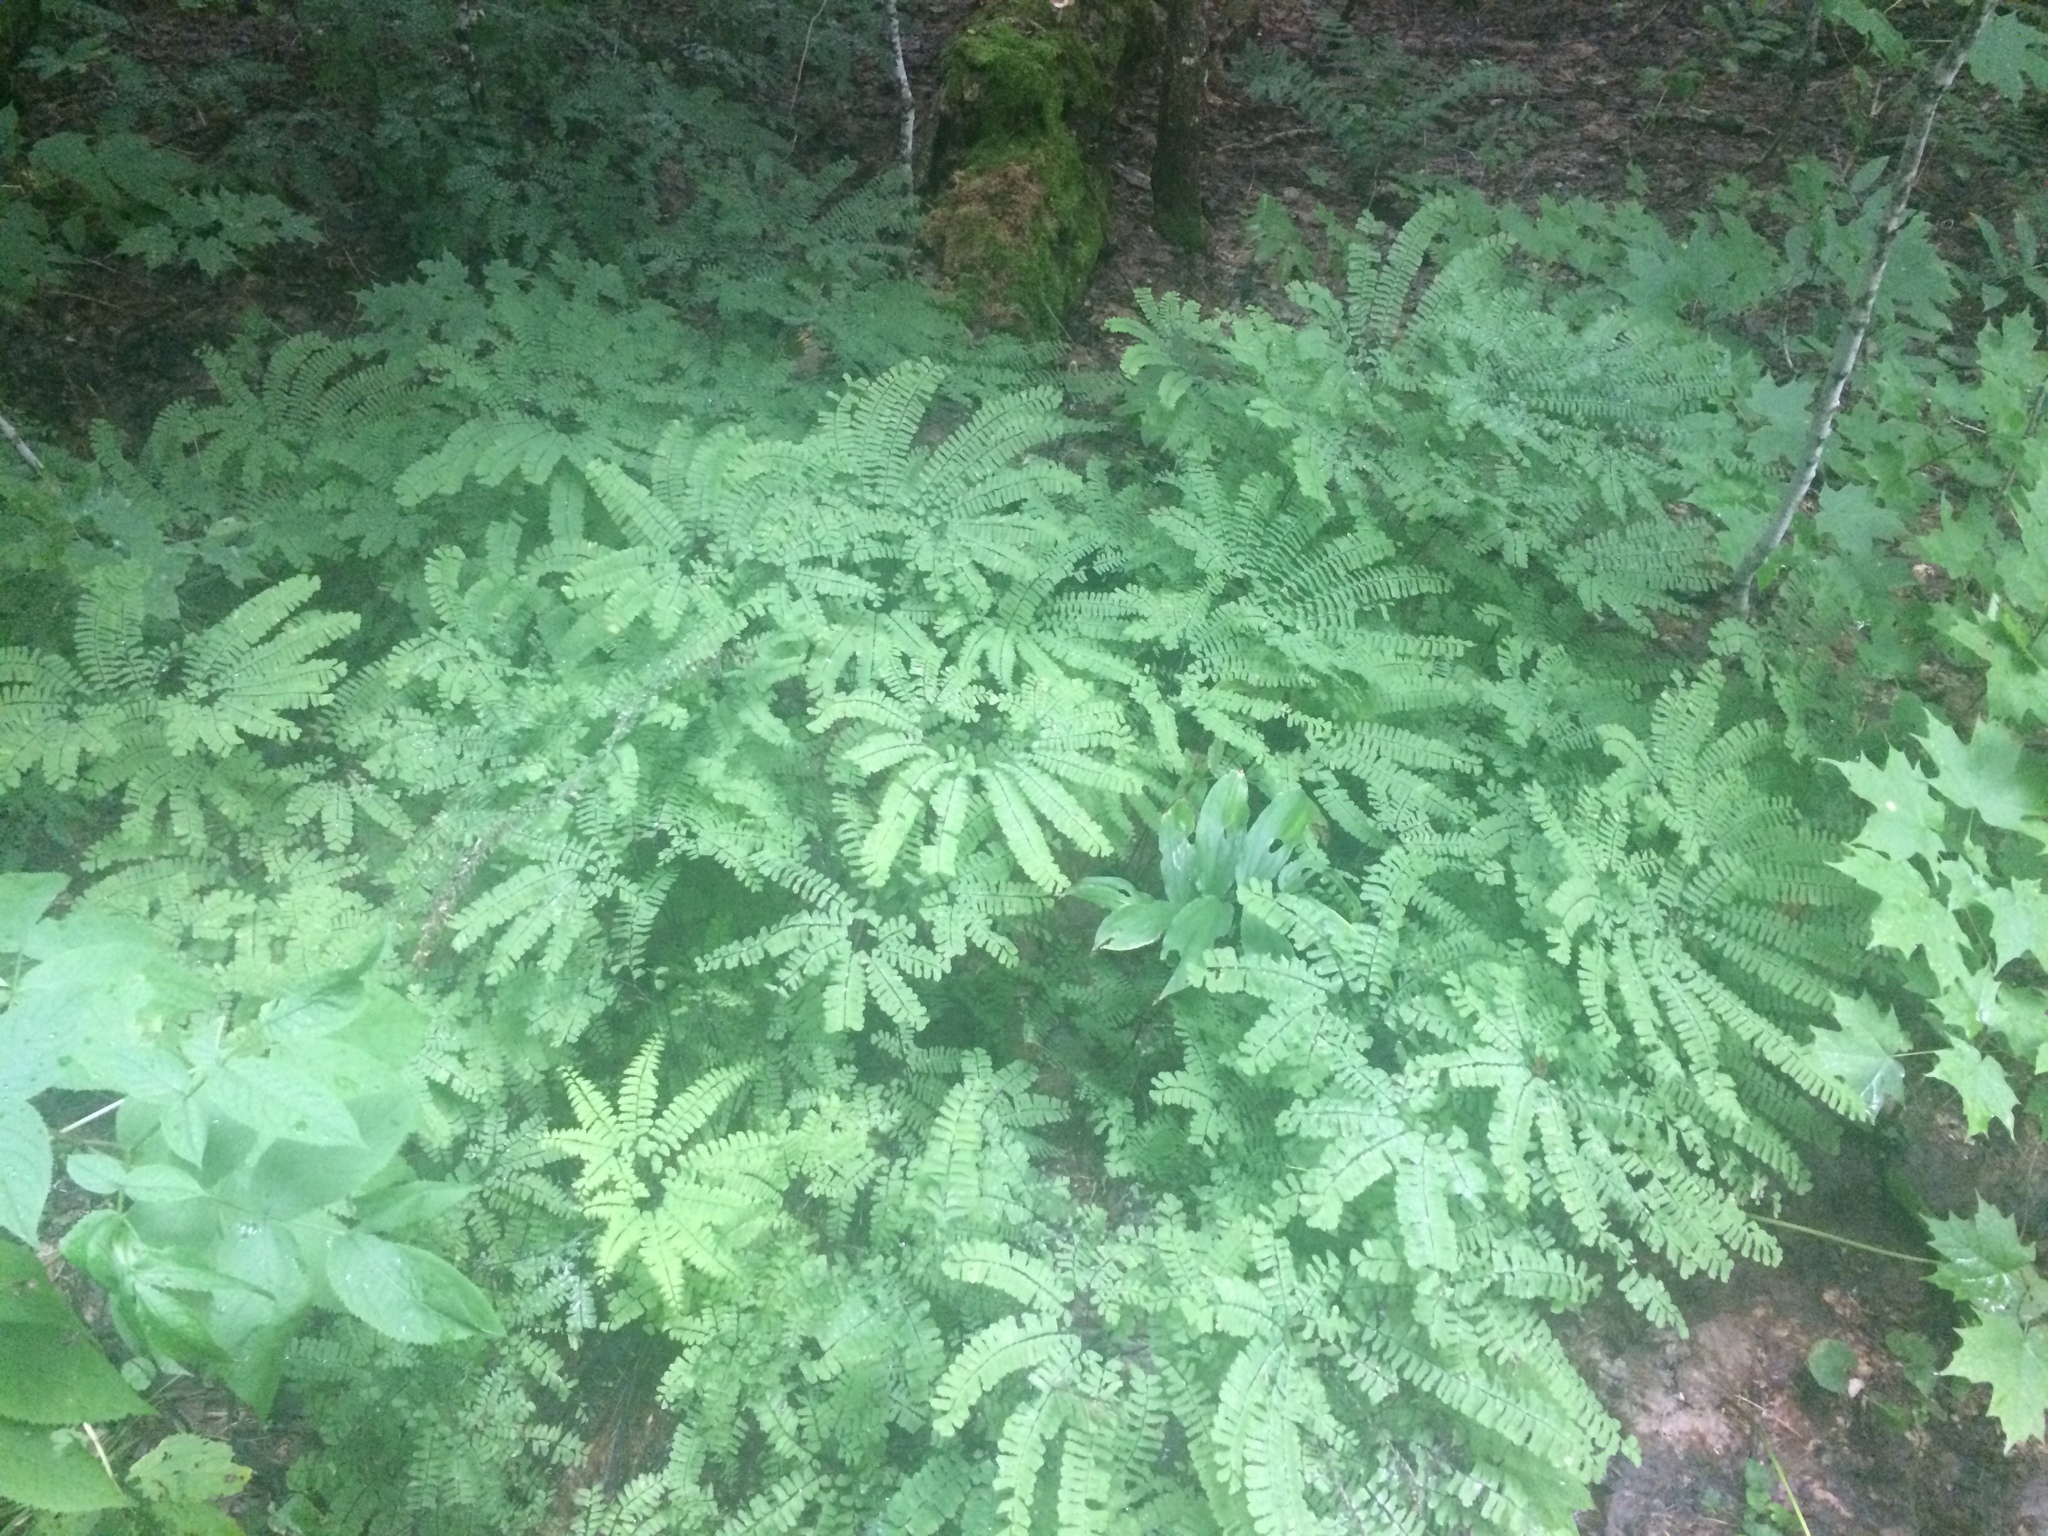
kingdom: Plantae
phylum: Tracheophyta
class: Polypodiopsida
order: Polypodiales
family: Pteridaceae
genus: Adiantum
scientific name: Adiantum pedatum
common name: Five-finger fern
